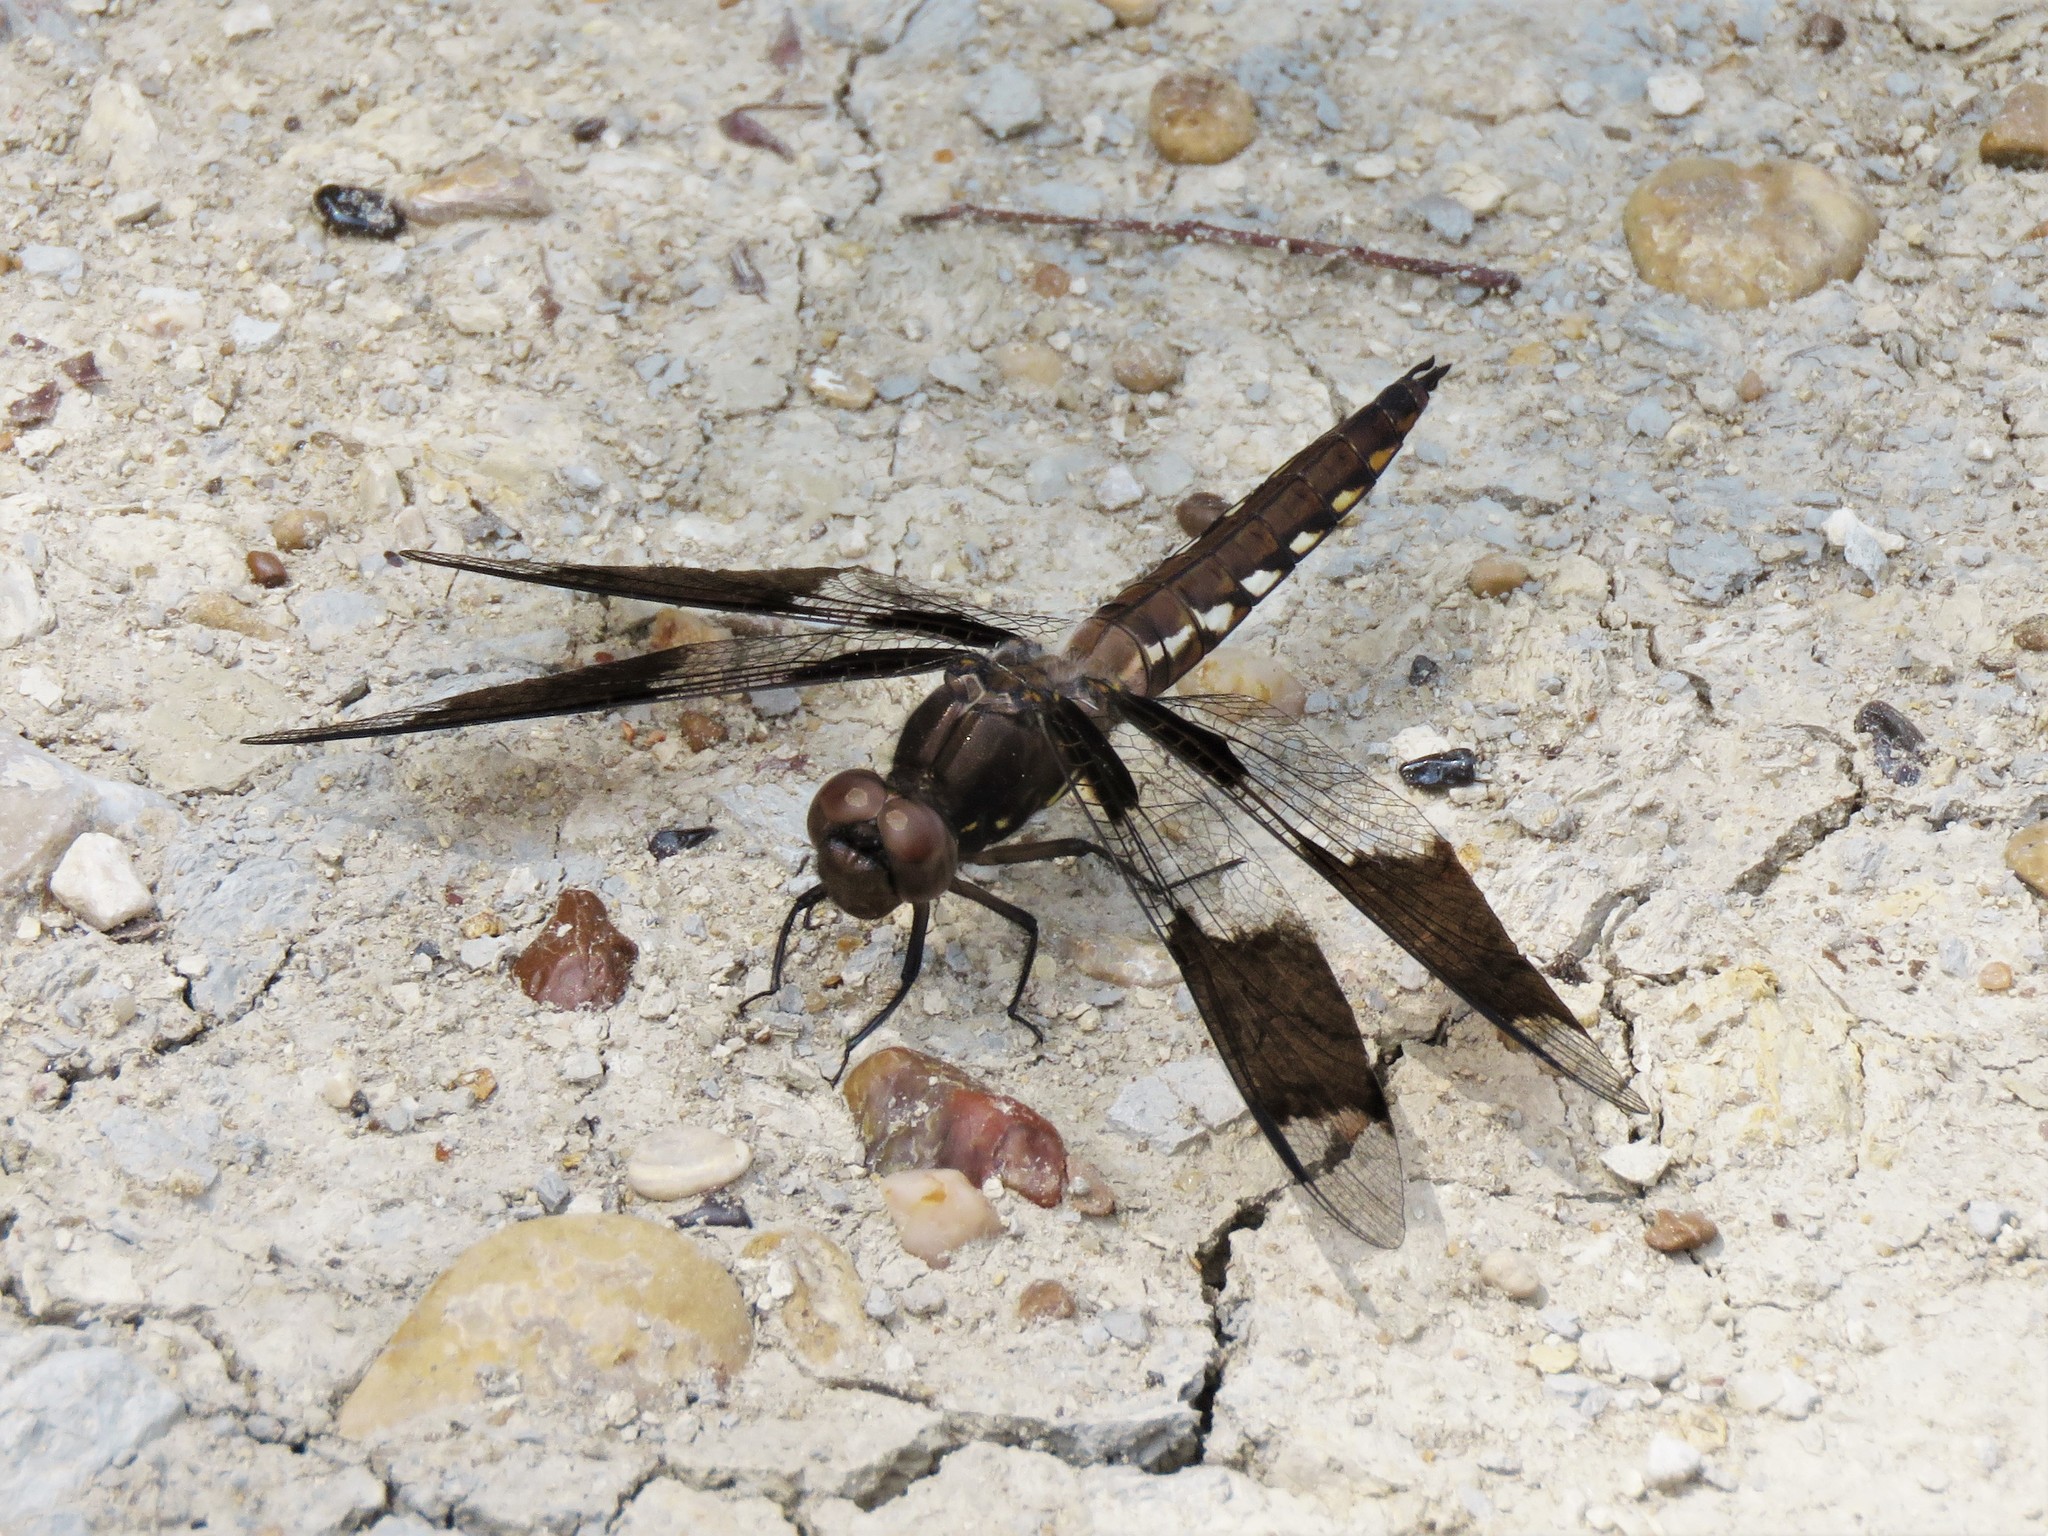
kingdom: Animalia
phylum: Arthropoda
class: Insecta
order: Odonata
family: Libellulidae
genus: Plathemis
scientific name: Plathemis lydia
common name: Common whitetail
